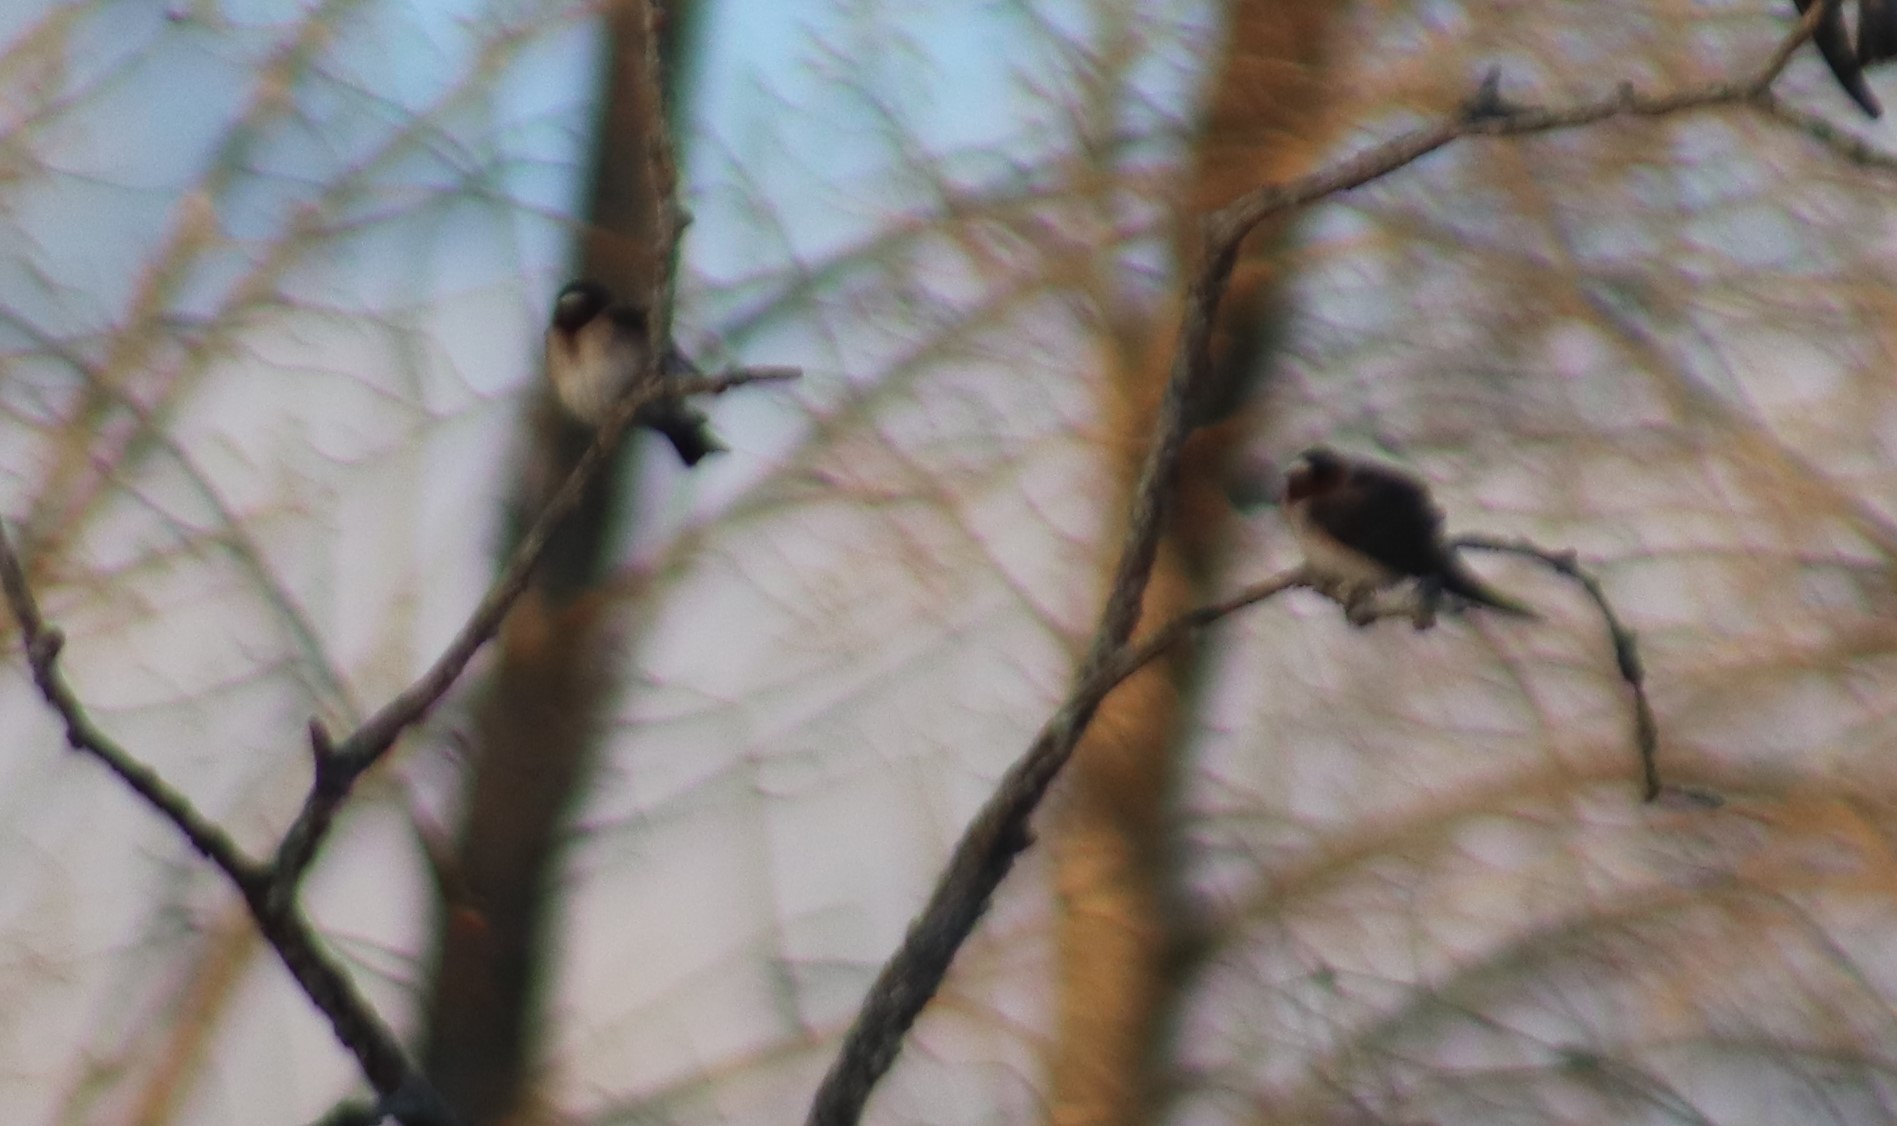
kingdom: Animalia
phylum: Chordata
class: Aves
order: Passeriformes
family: Hirundinidae
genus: Petrochelidon
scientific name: Petrochelidon pyrrhonota
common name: American cliff swallow
